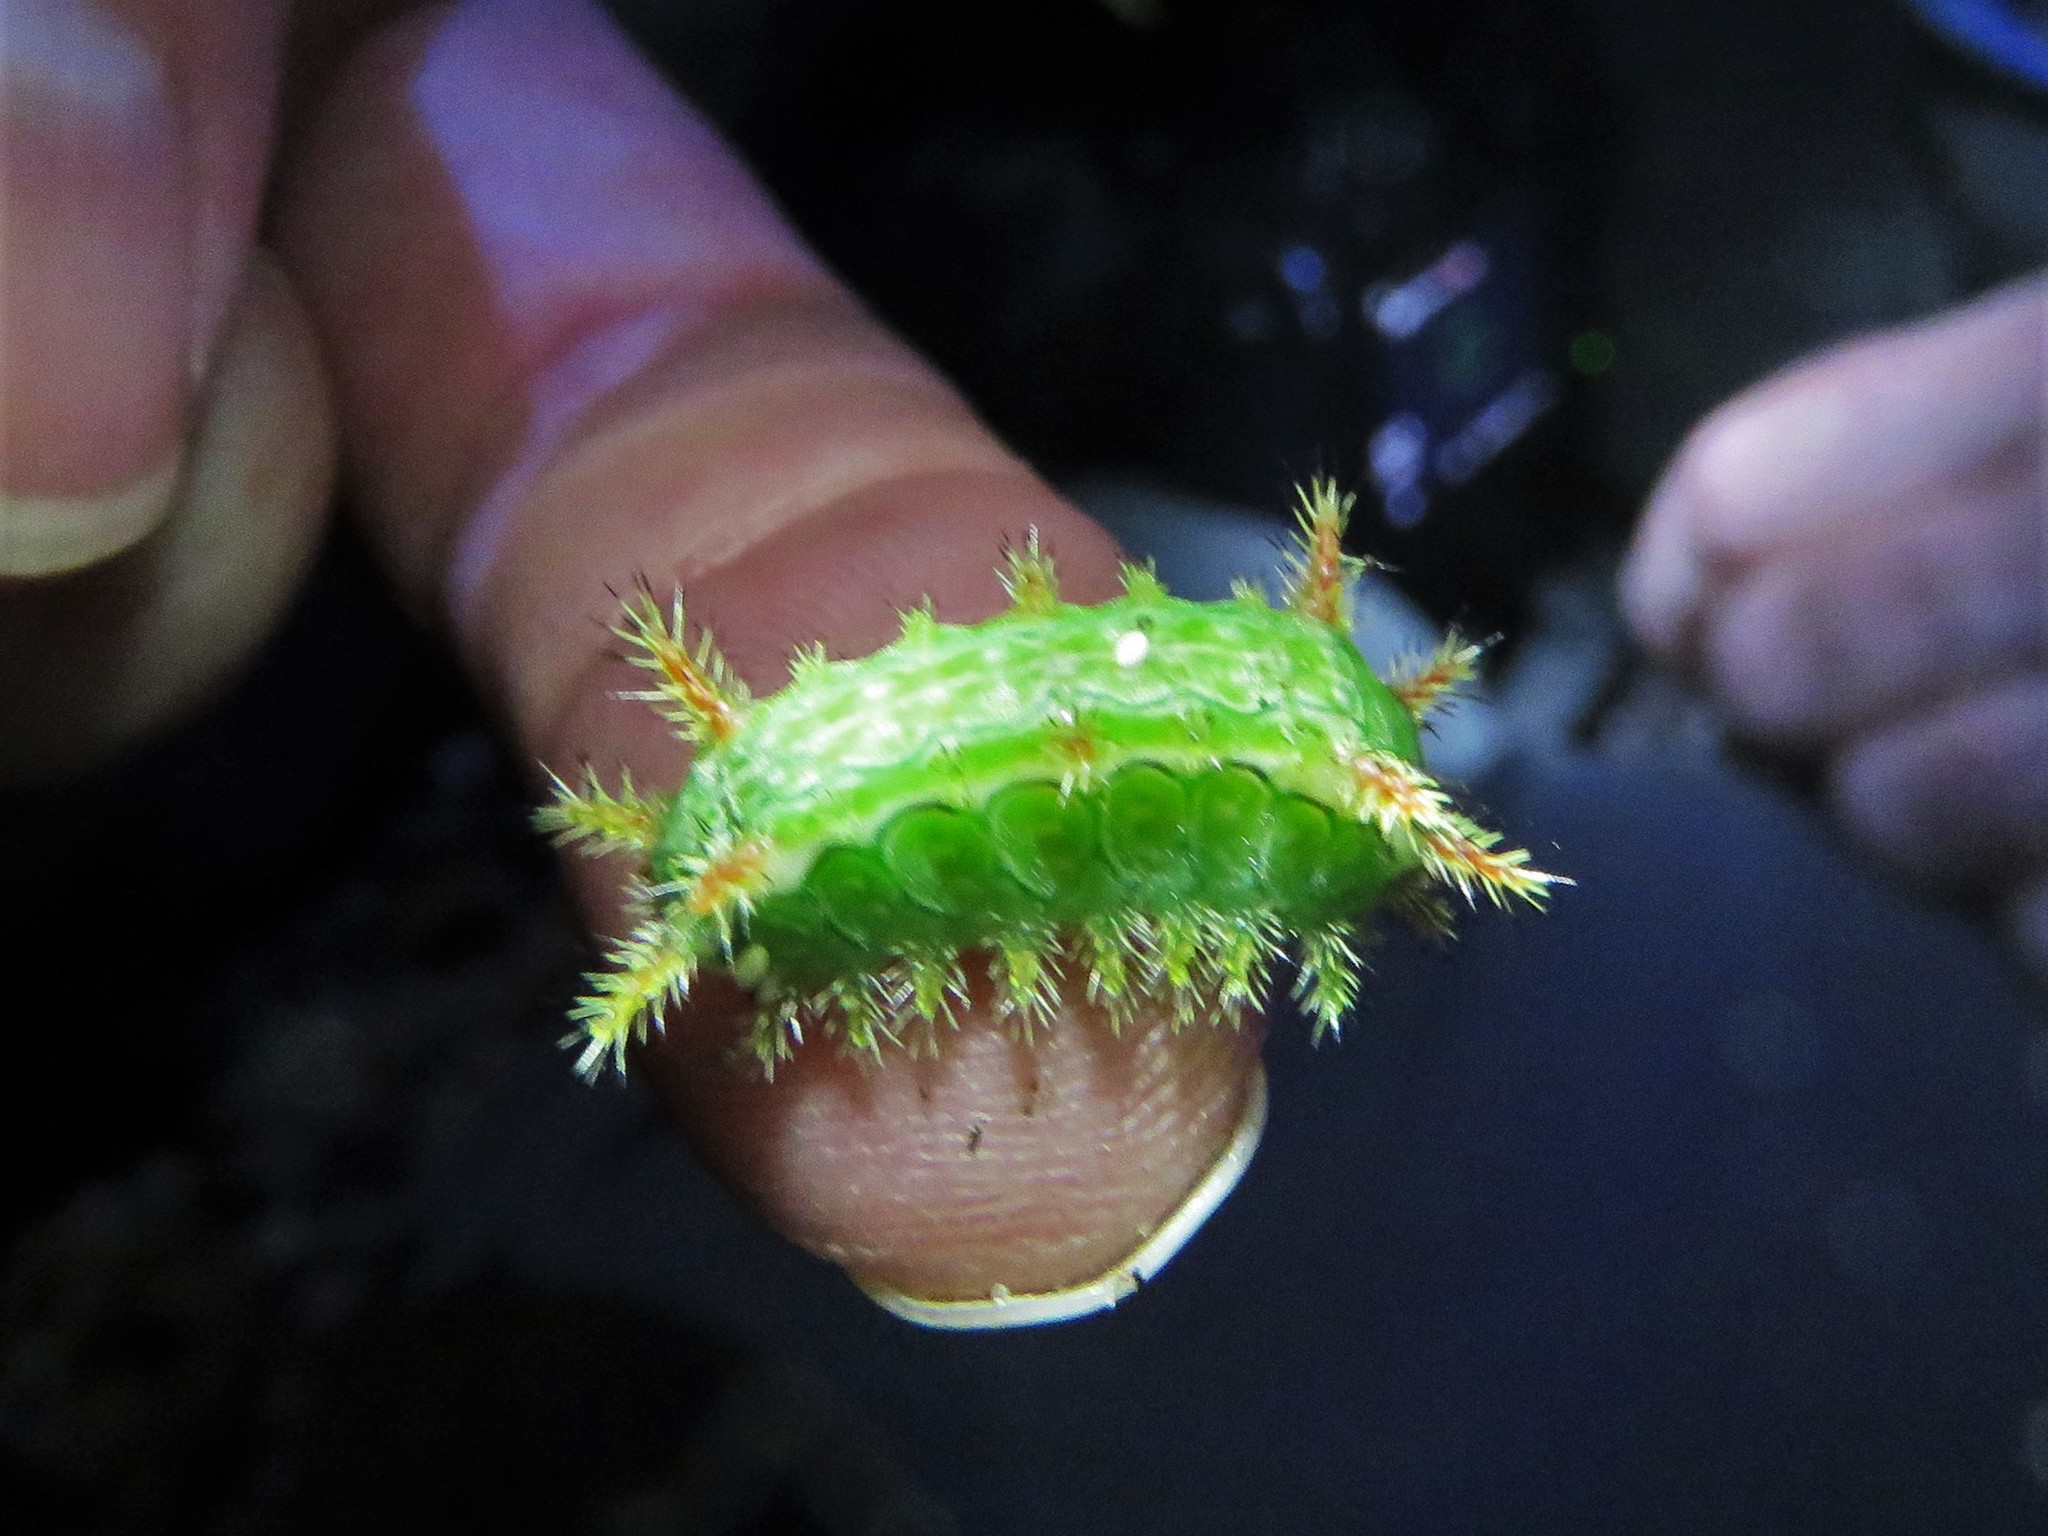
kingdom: Animalia
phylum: Arthropoda
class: Insecta
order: Lepidoptera
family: Limacodidae
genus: Euclea
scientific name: Euclea incisa
